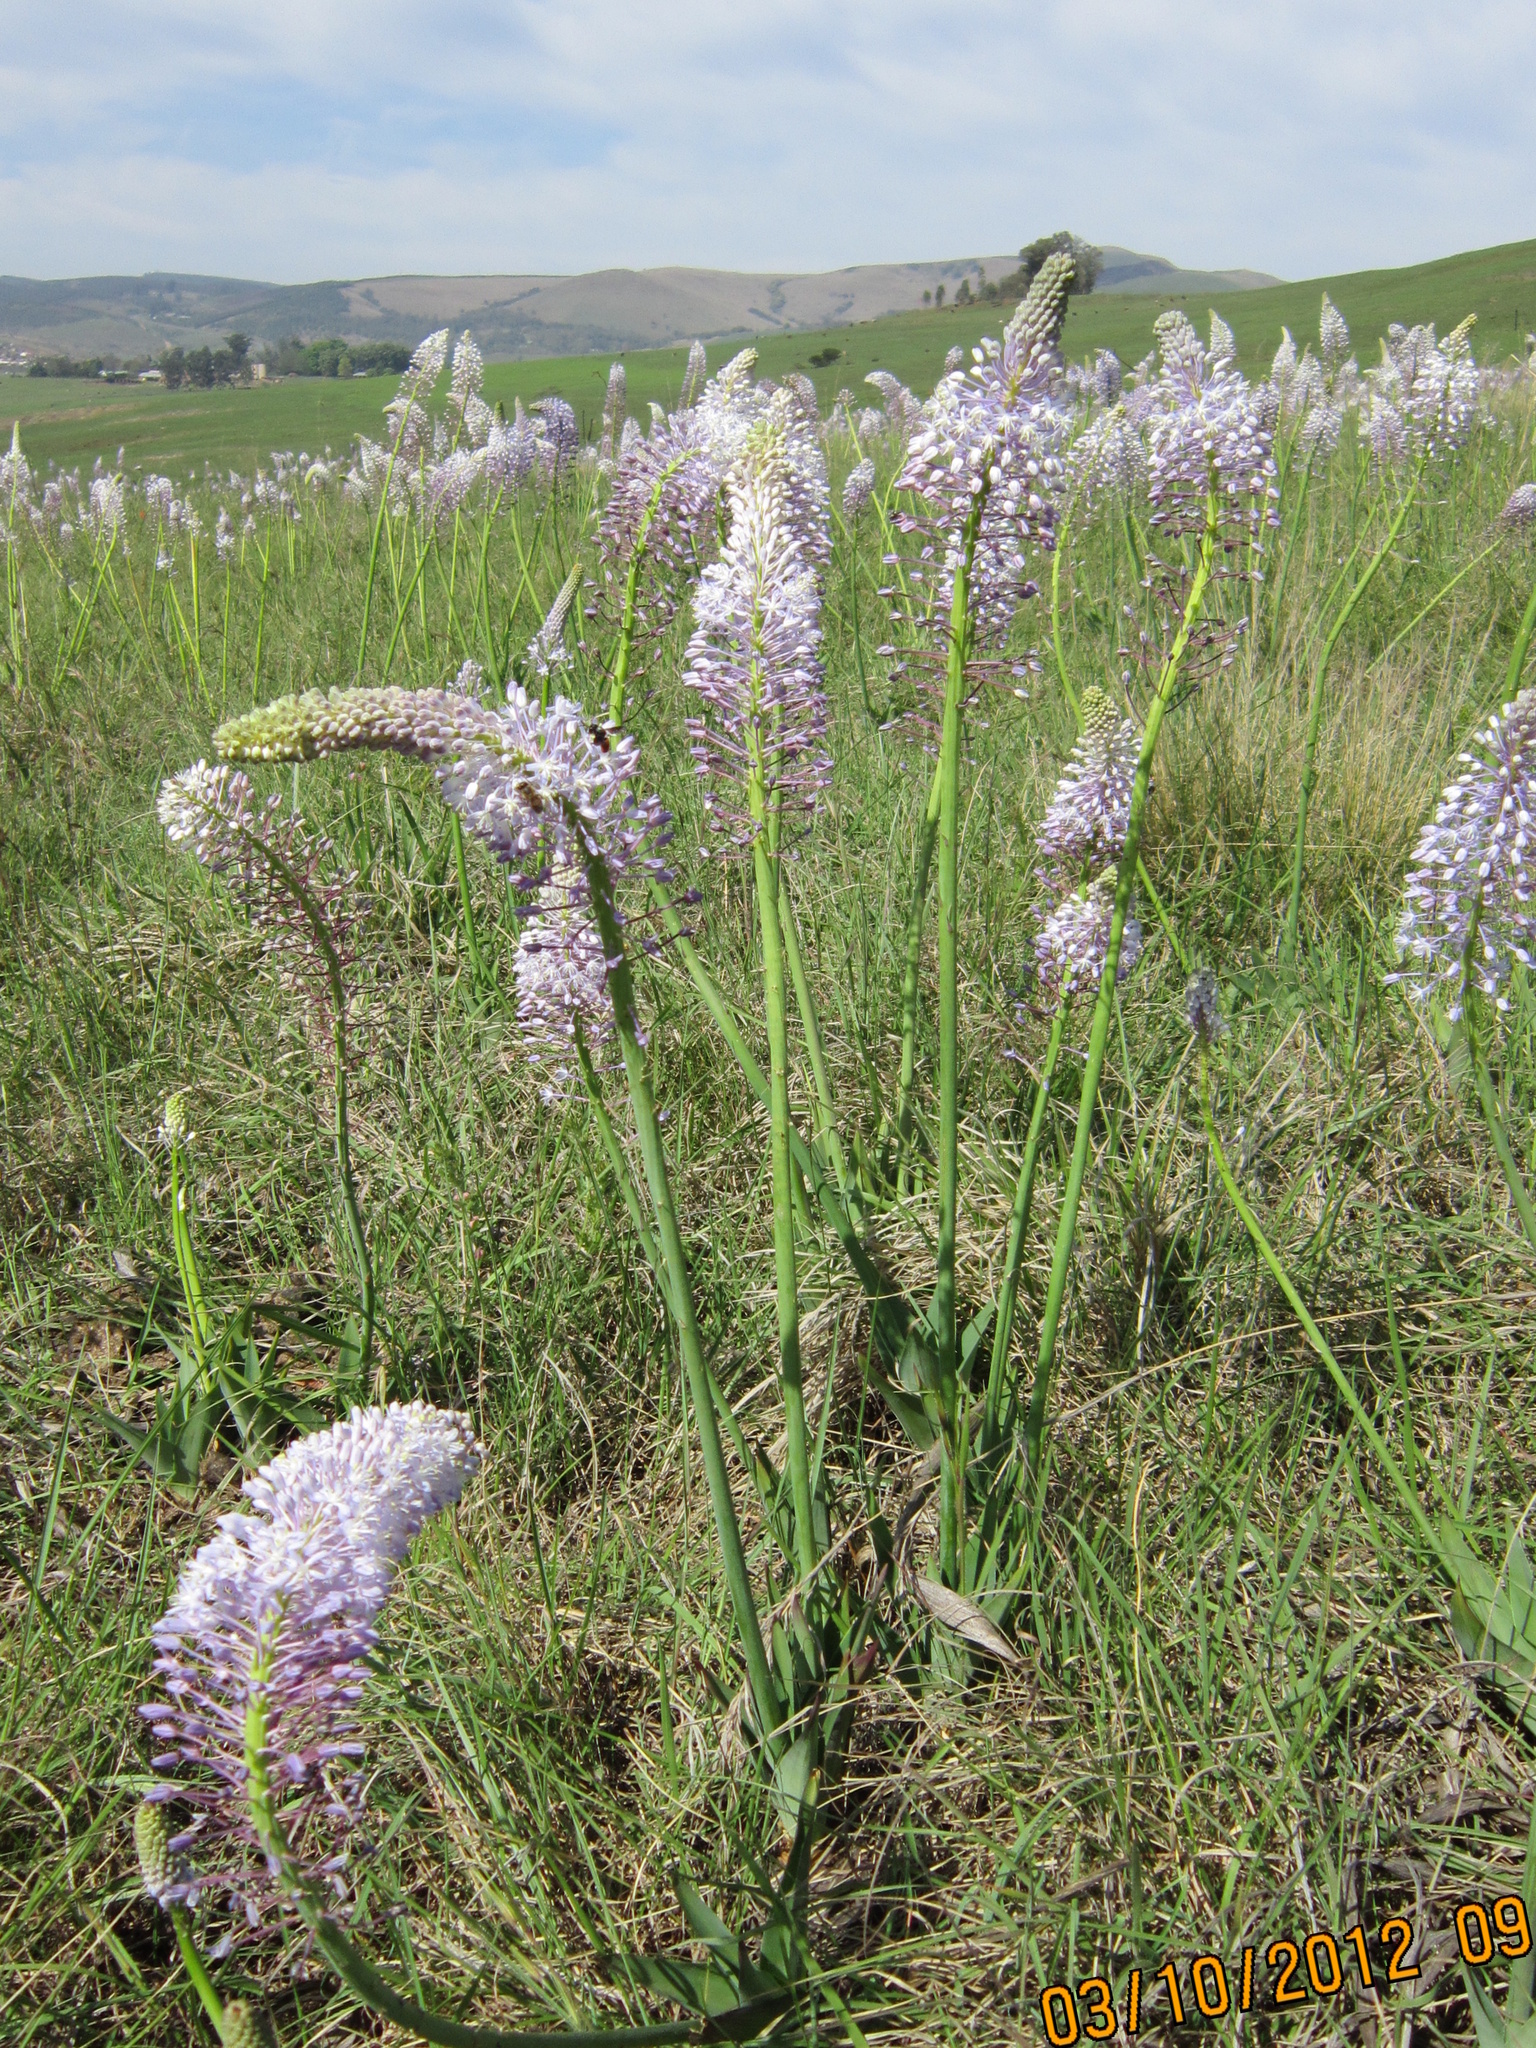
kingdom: Plantae
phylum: Tracheophyta
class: Liliopsida
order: Asparagales
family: Asparagaceae
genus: Merwilla
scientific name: Merwilla plumbea
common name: Blue-squill
